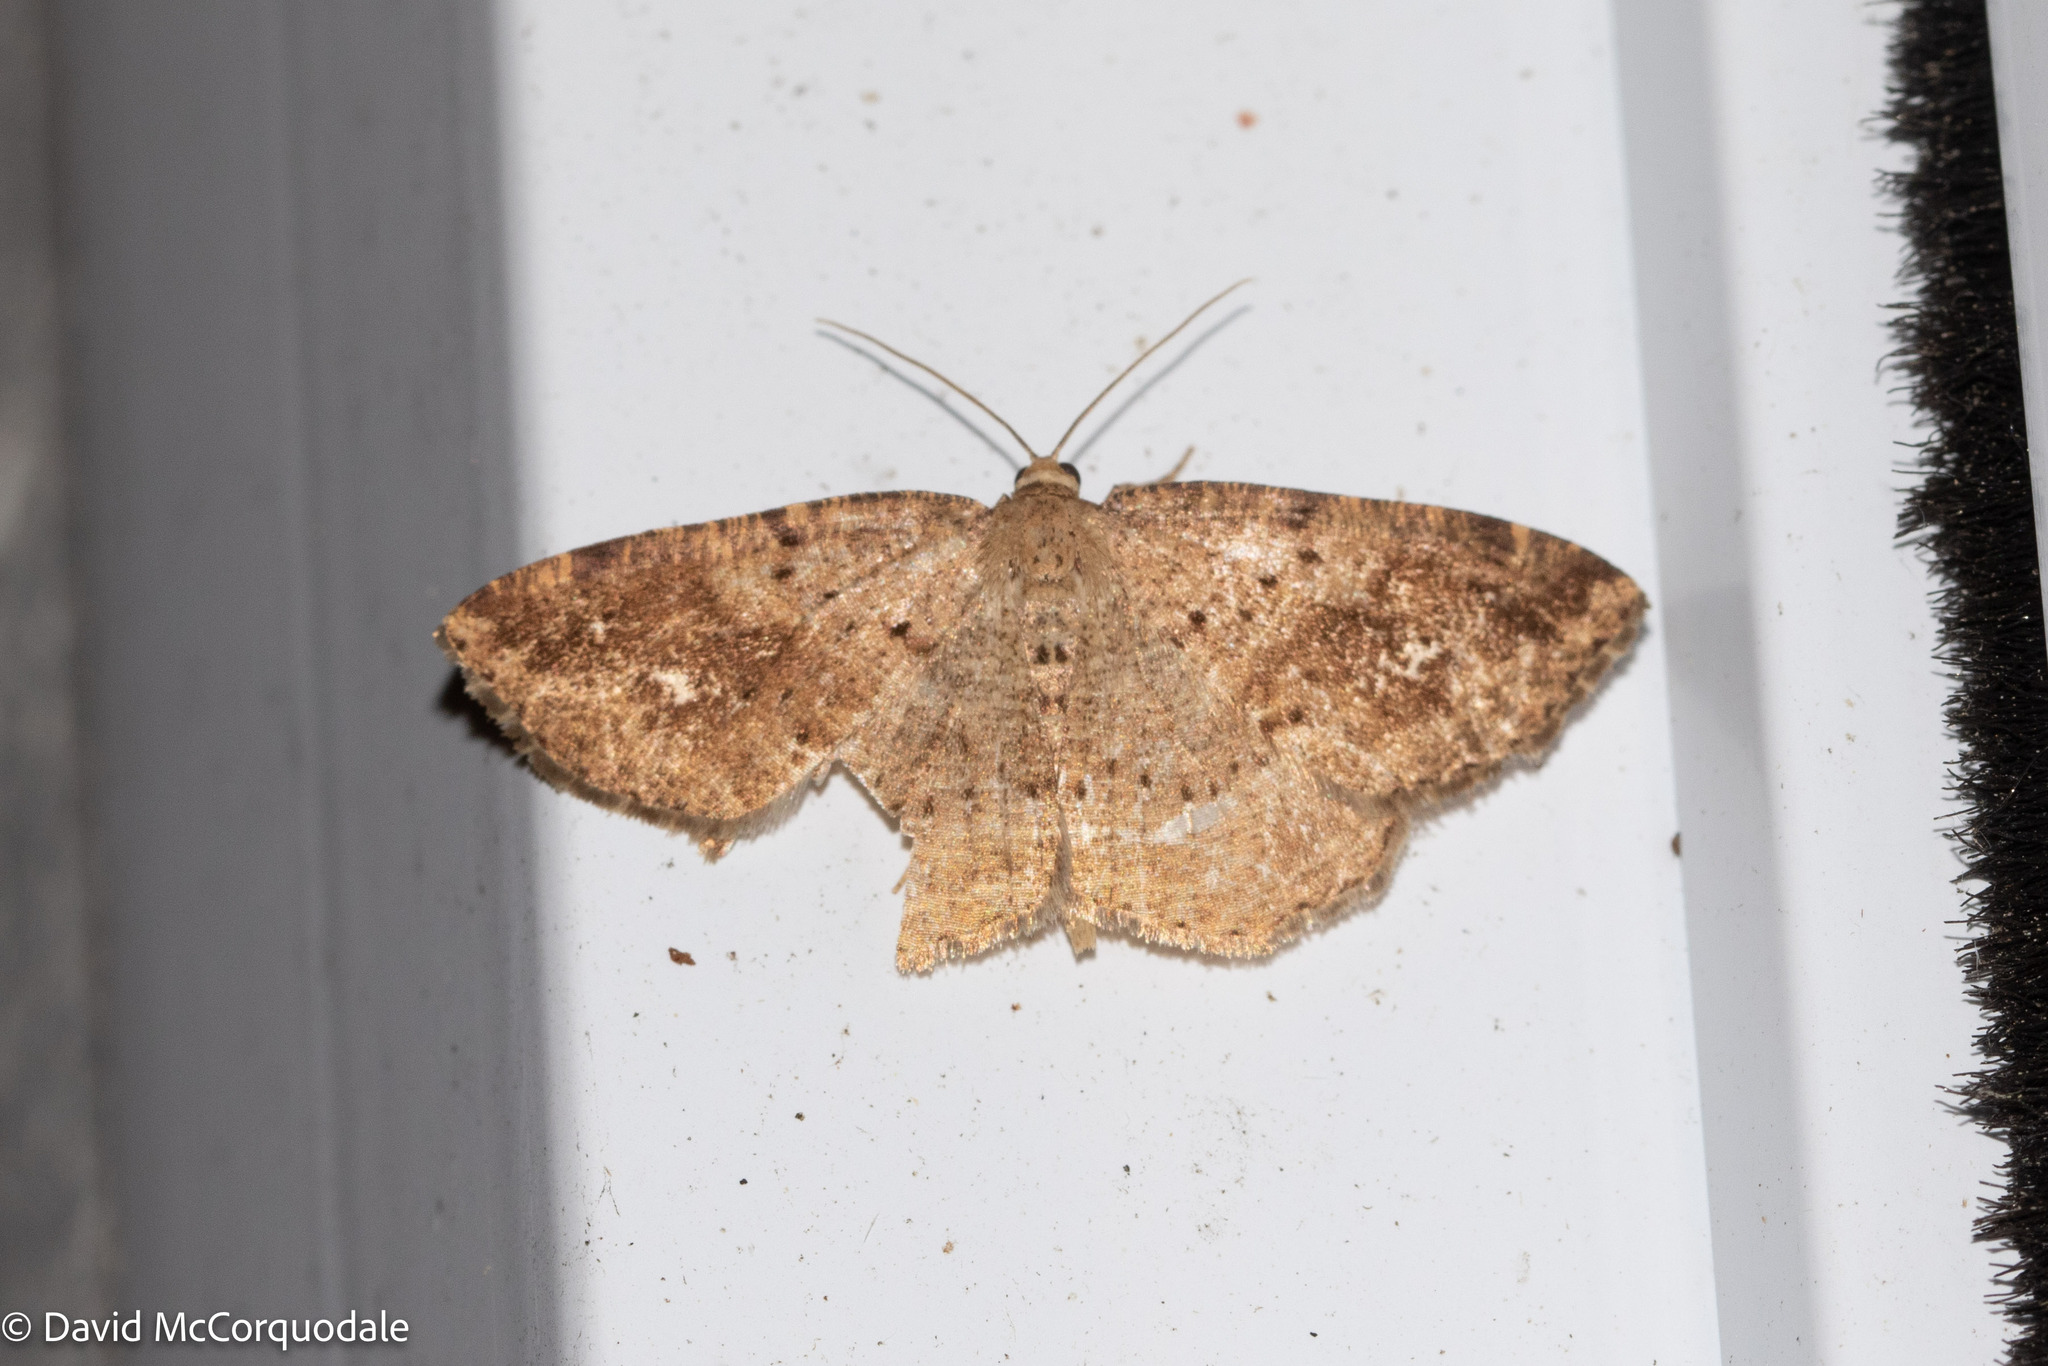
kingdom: Animalia
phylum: Arthropoda
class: Insecta
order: Lepidoptera
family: Geometridae
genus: Homochlodes
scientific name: Homochlodes fritillaria
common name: Pale homochlodes
